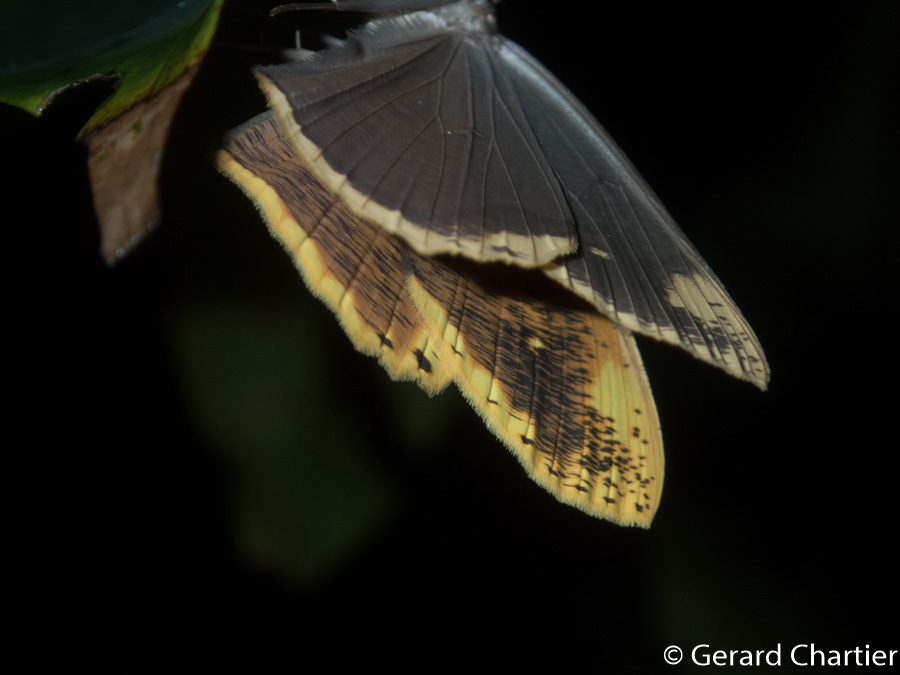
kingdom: Animalia
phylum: Arthropoda
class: Insecta
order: Lepidoptera
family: Geometridae
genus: Pareumelea
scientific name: Pareumelea hortensiata
